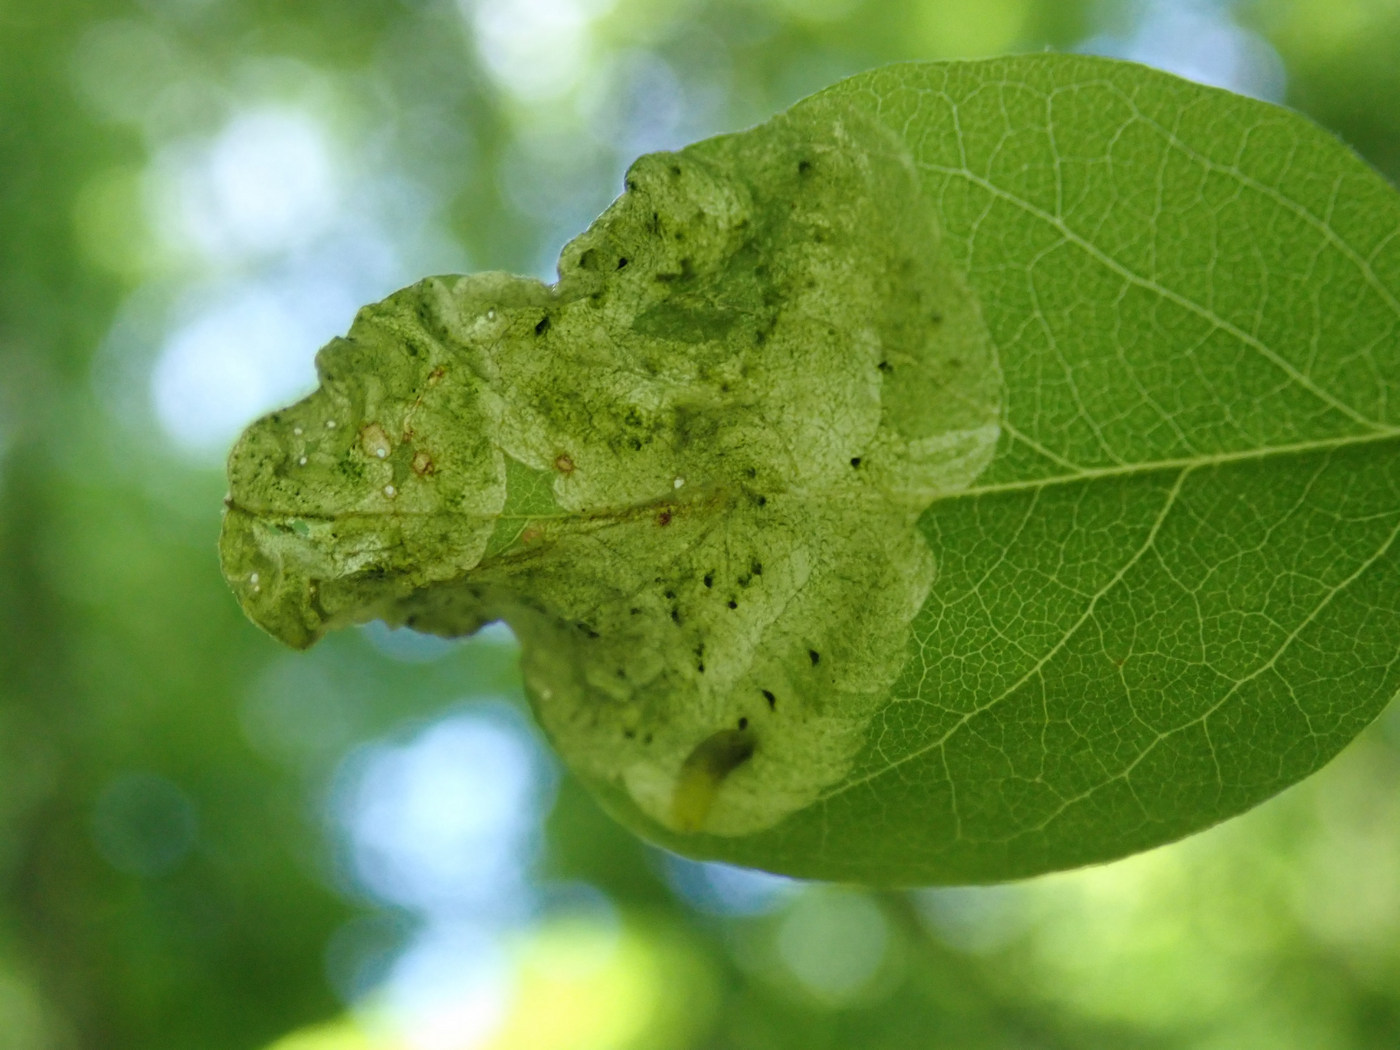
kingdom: Animalia
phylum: Arthropoda
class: Insecta
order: Diptera
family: Agromyzidae
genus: Agromyza
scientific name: Agromyza soka
